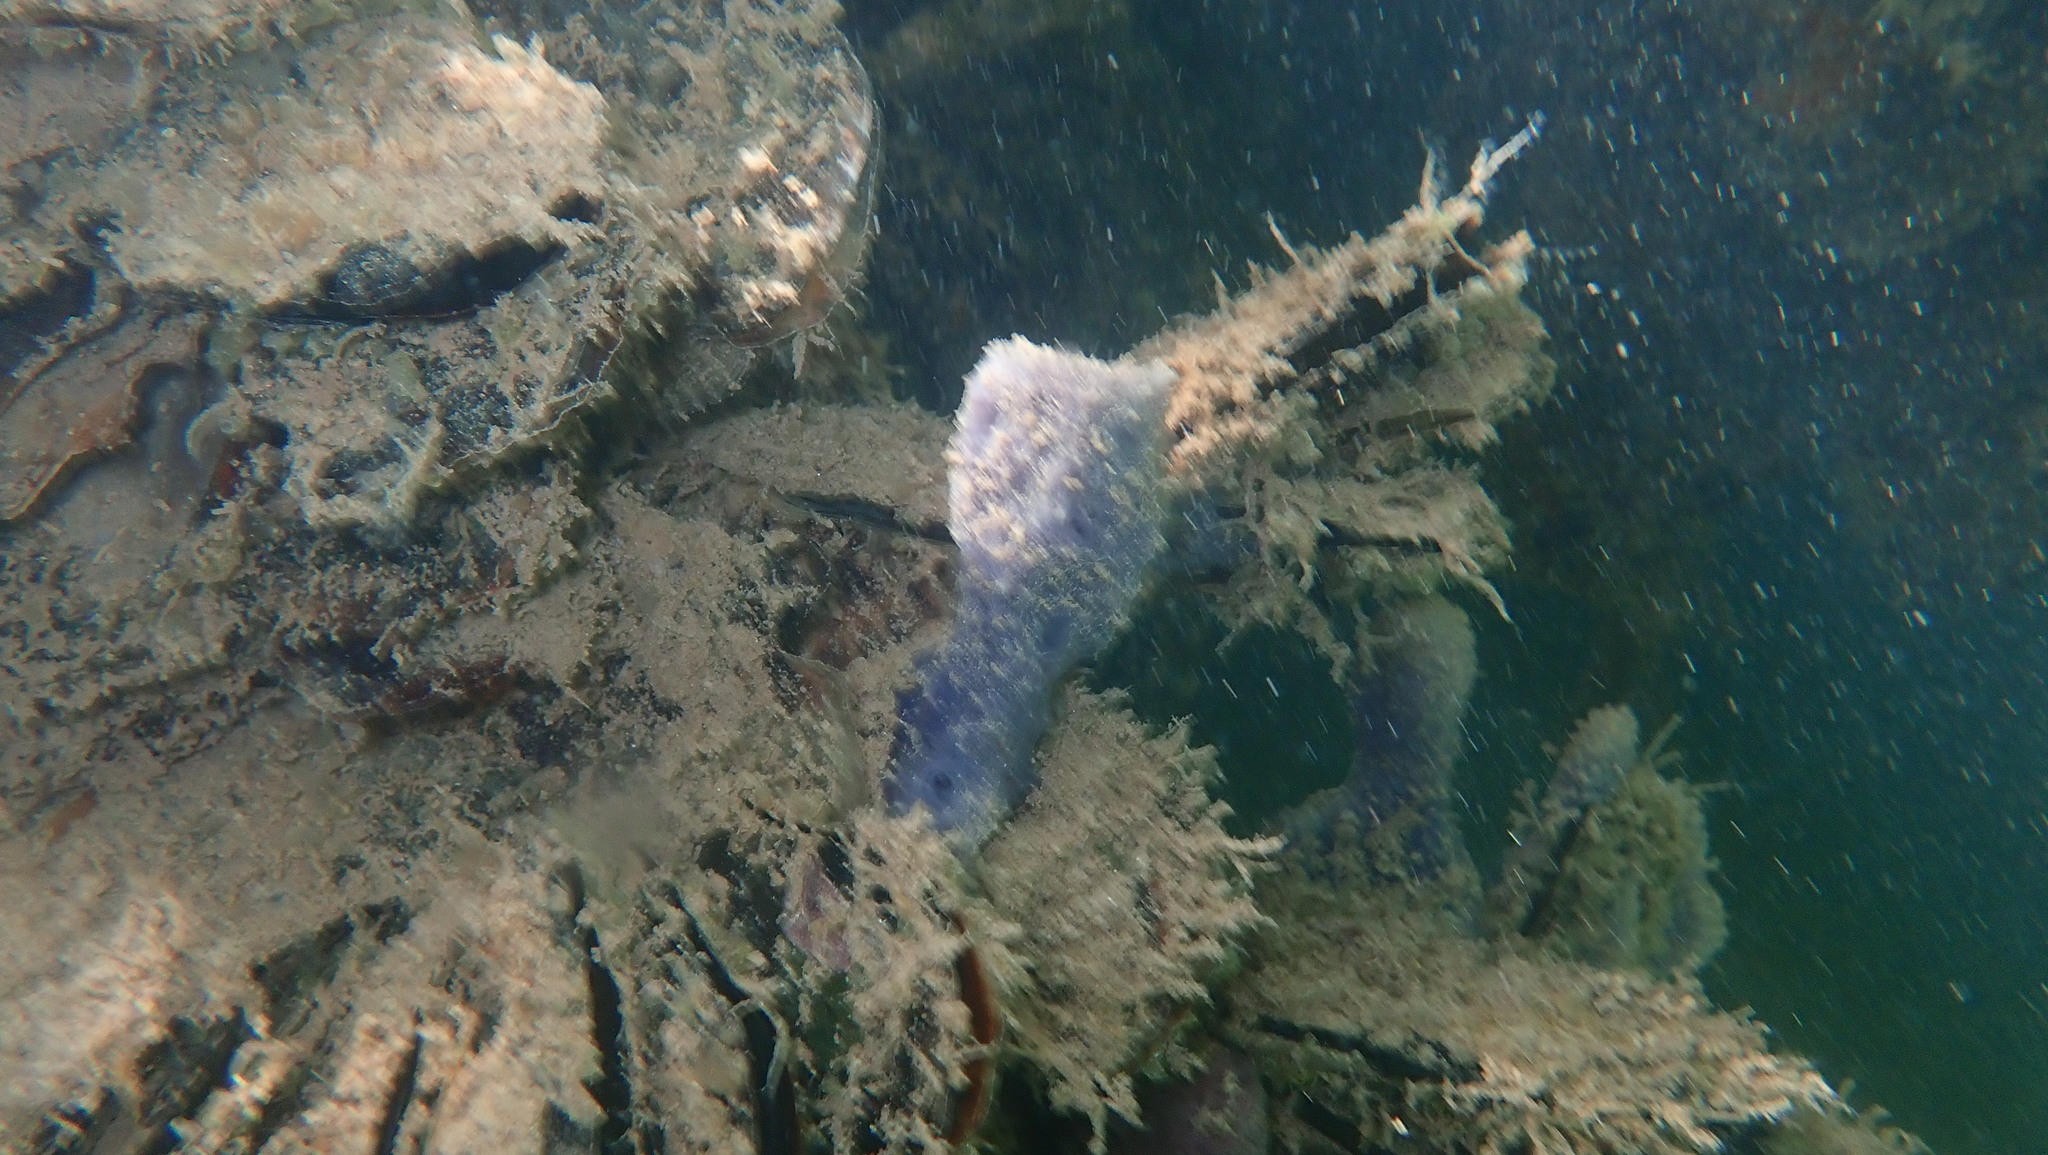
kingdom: Animalia
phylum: Porifera
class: Demospongiae
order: Dictyoceratida
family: Dysideidae
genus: Dysidea
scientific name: Dysidea etheria
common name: Heavenly sponge
